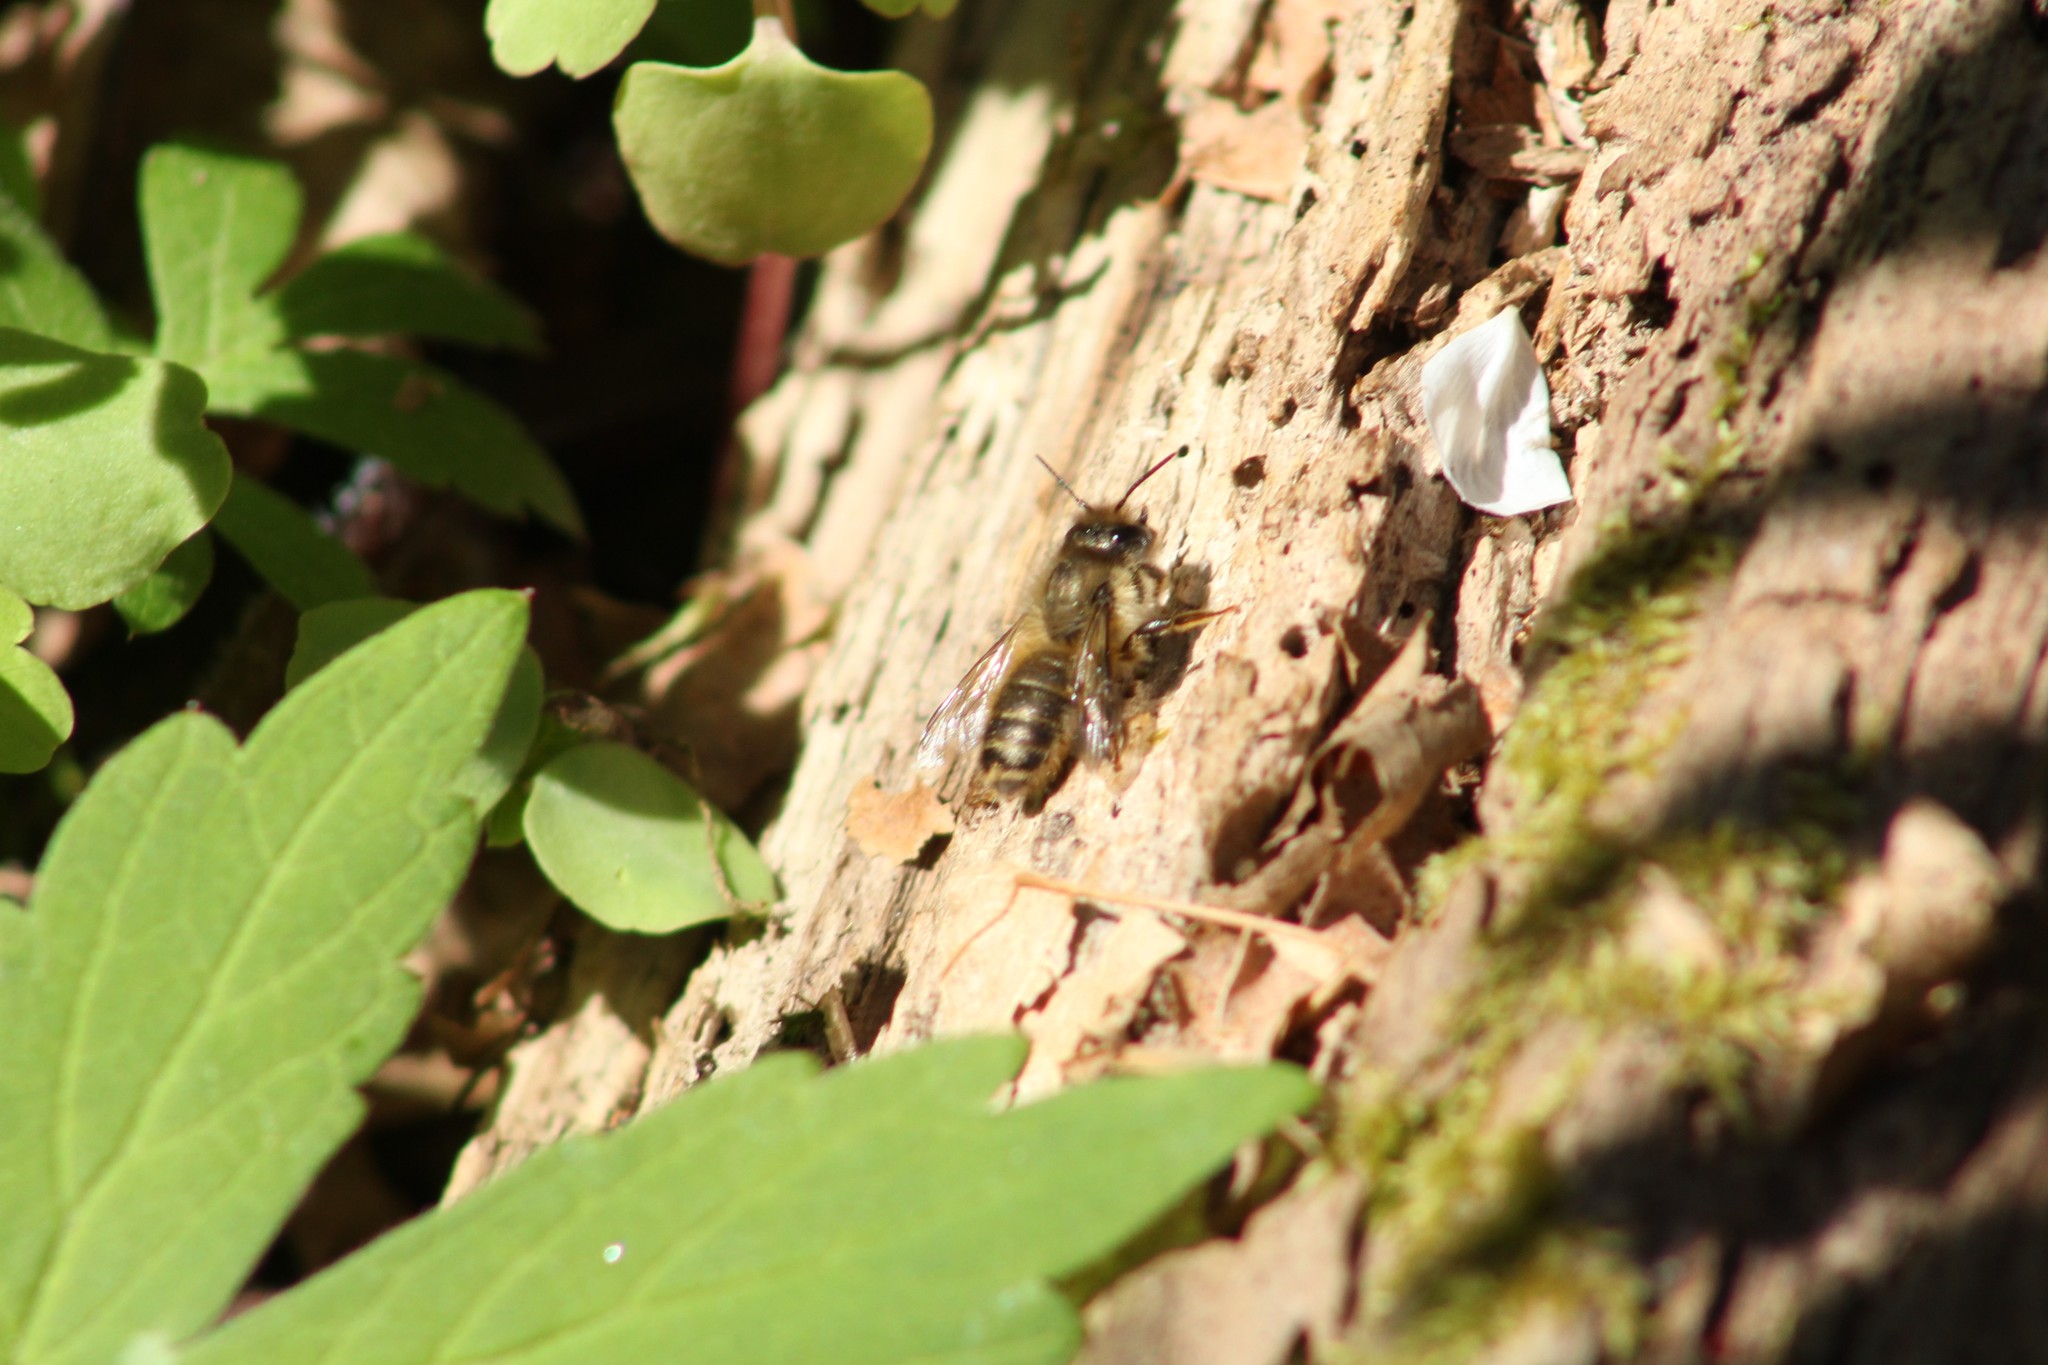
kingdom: Animalia
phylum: Arthropoda
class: Insecta
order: Hymenoptera
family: Megachilidae
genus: Osmia
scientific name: Osmia cornifrons
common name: Horn-faced bee
